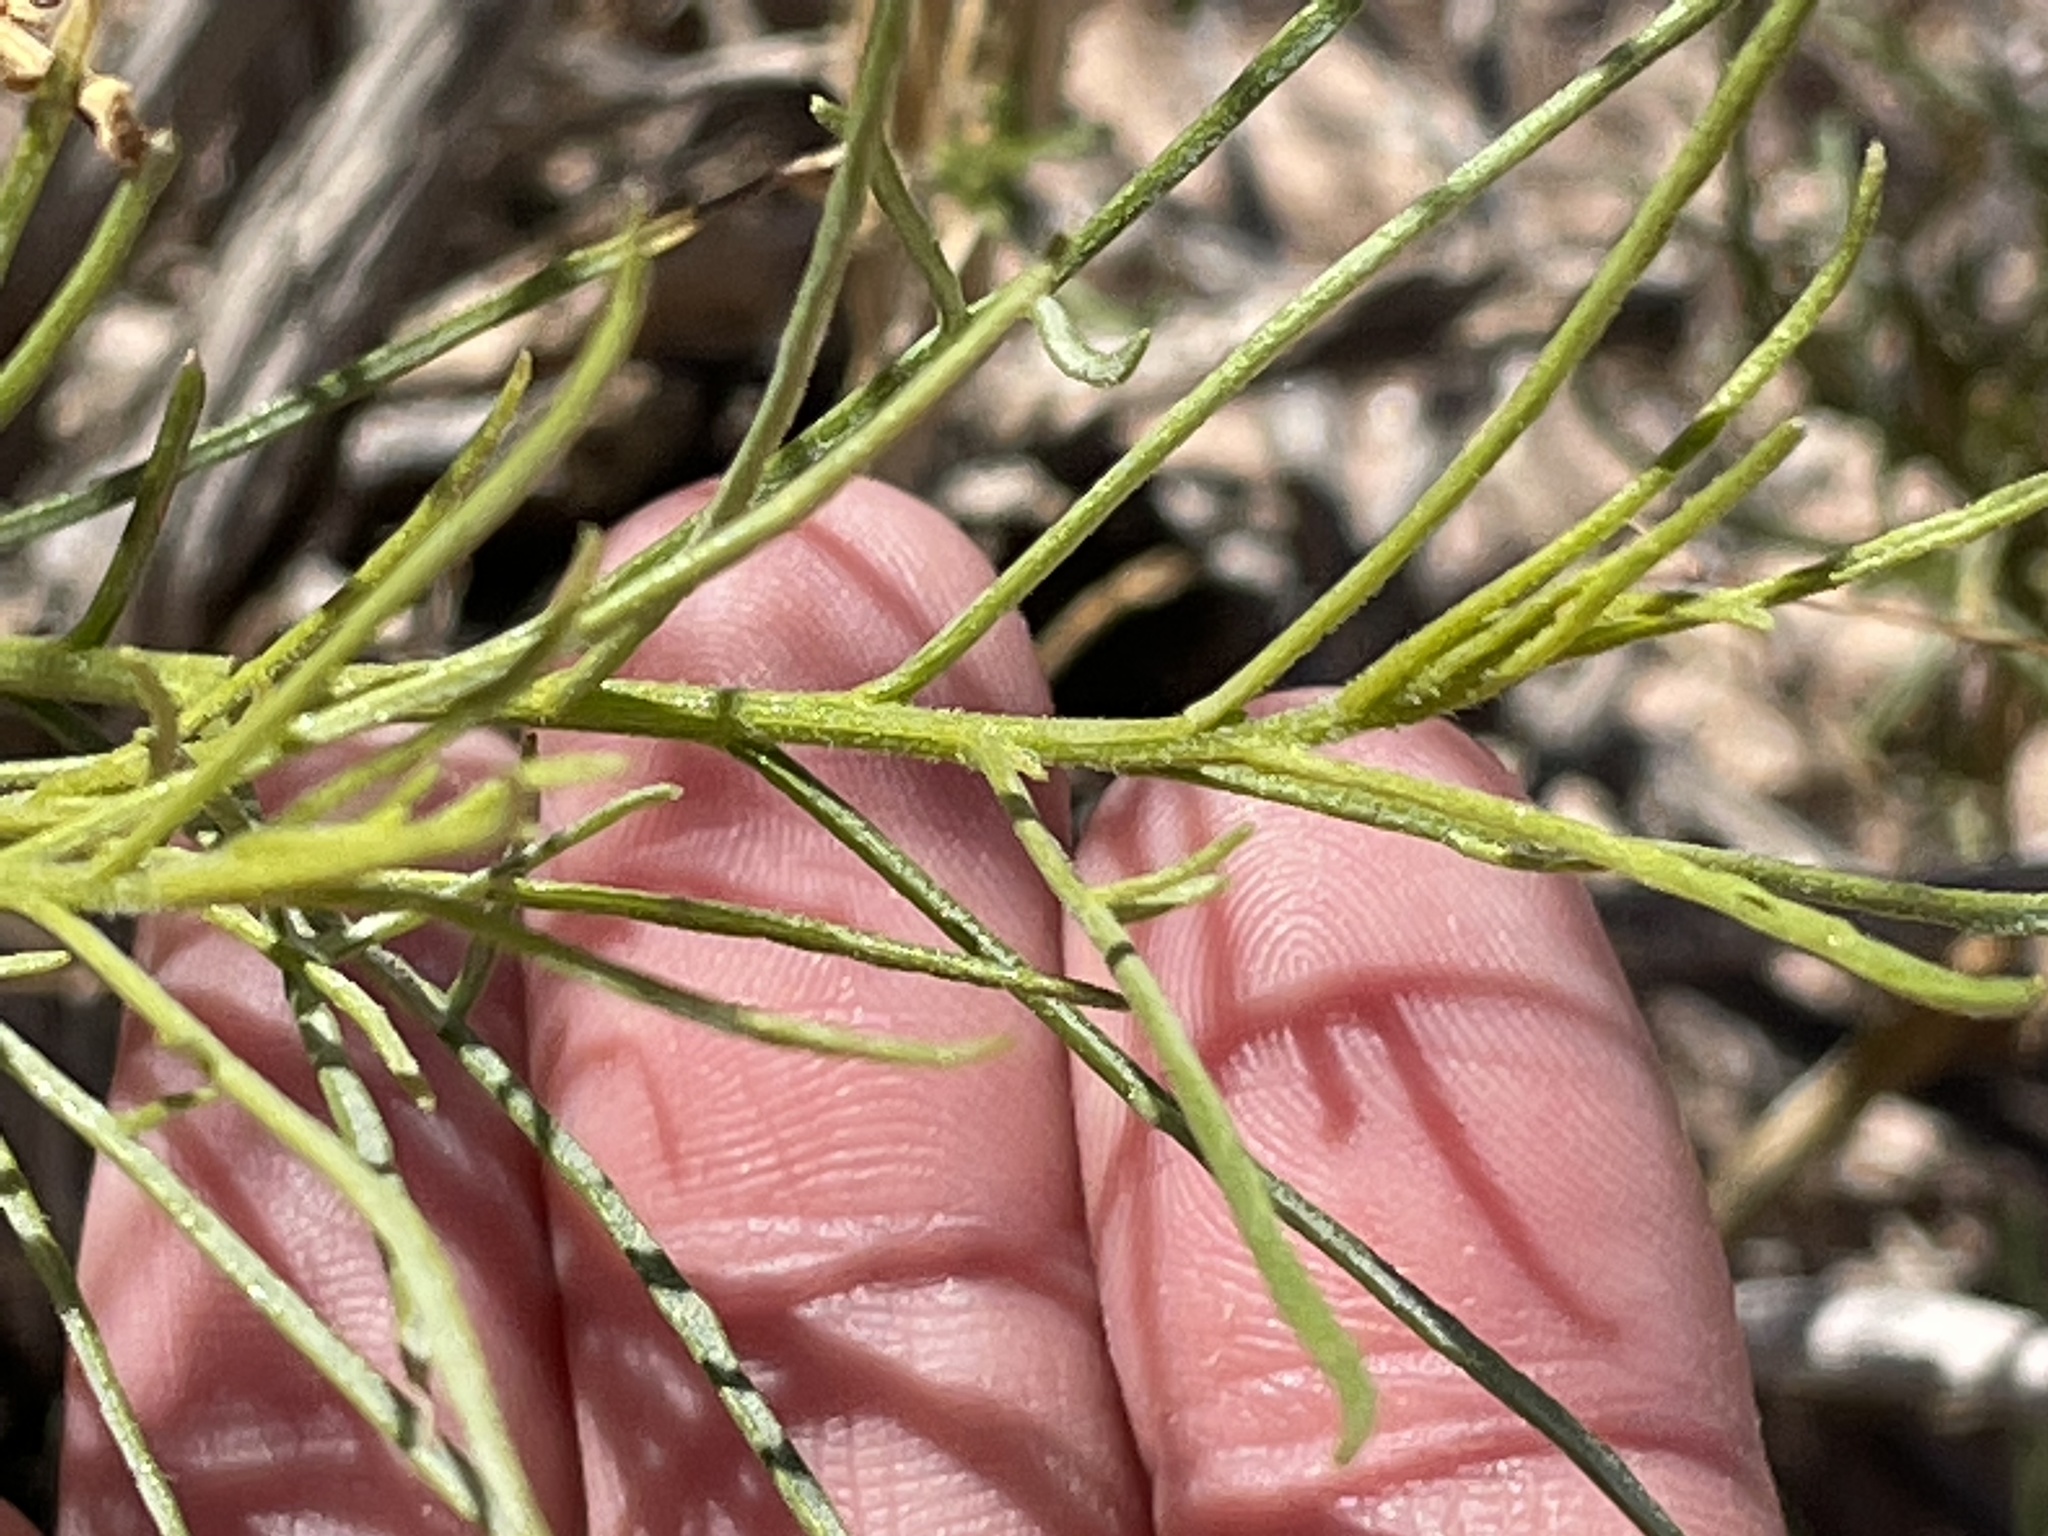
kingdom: Plantae
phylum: Tracheophyta
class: Magnoliopsida
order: Asterales
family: Asteraceae
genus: Ambrosia
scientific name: Ambrosia salsola
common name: Burrobrush
